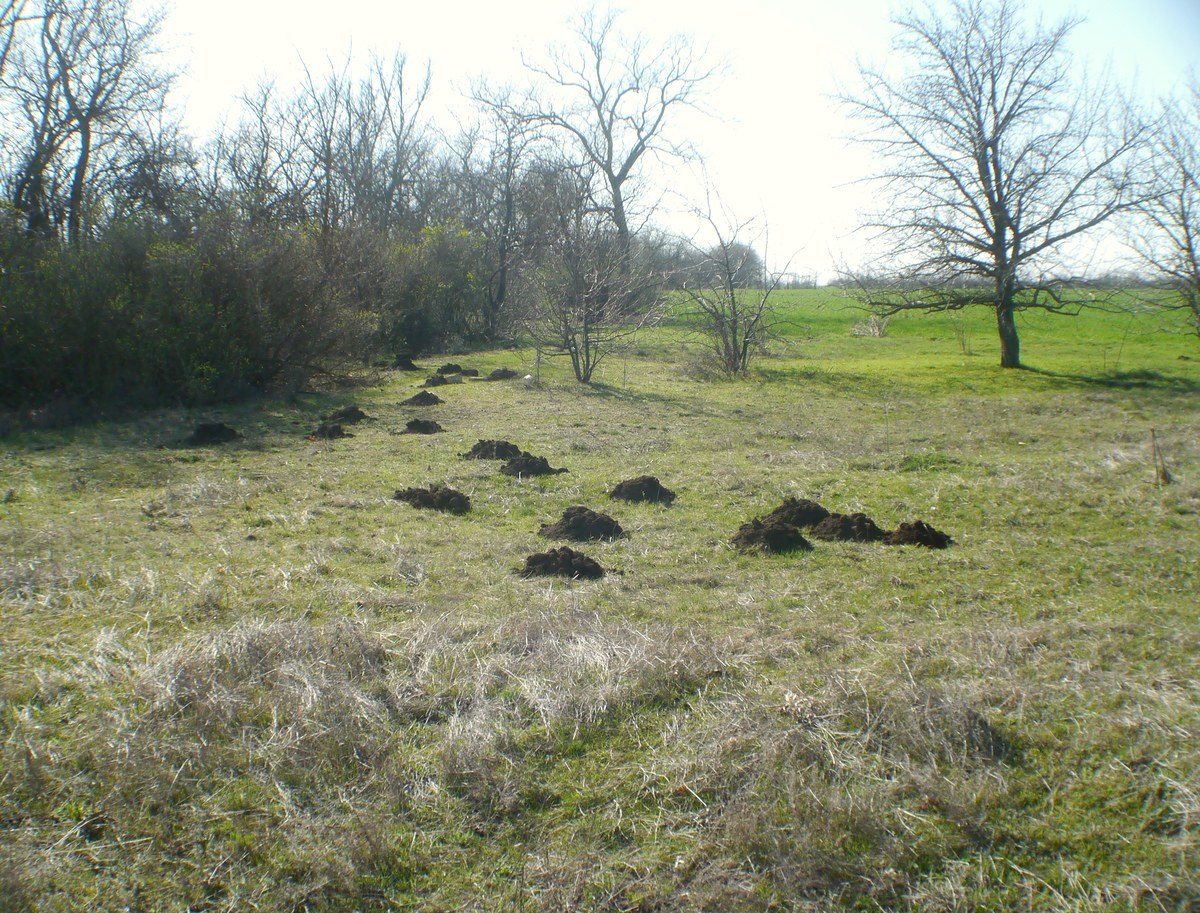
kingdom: Animalia
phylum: Chordata
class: Mammalia
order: Rodentia
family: Spalacidae
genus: Spalax
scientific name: Spalax zemni
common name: Podolsk blind mole rat
